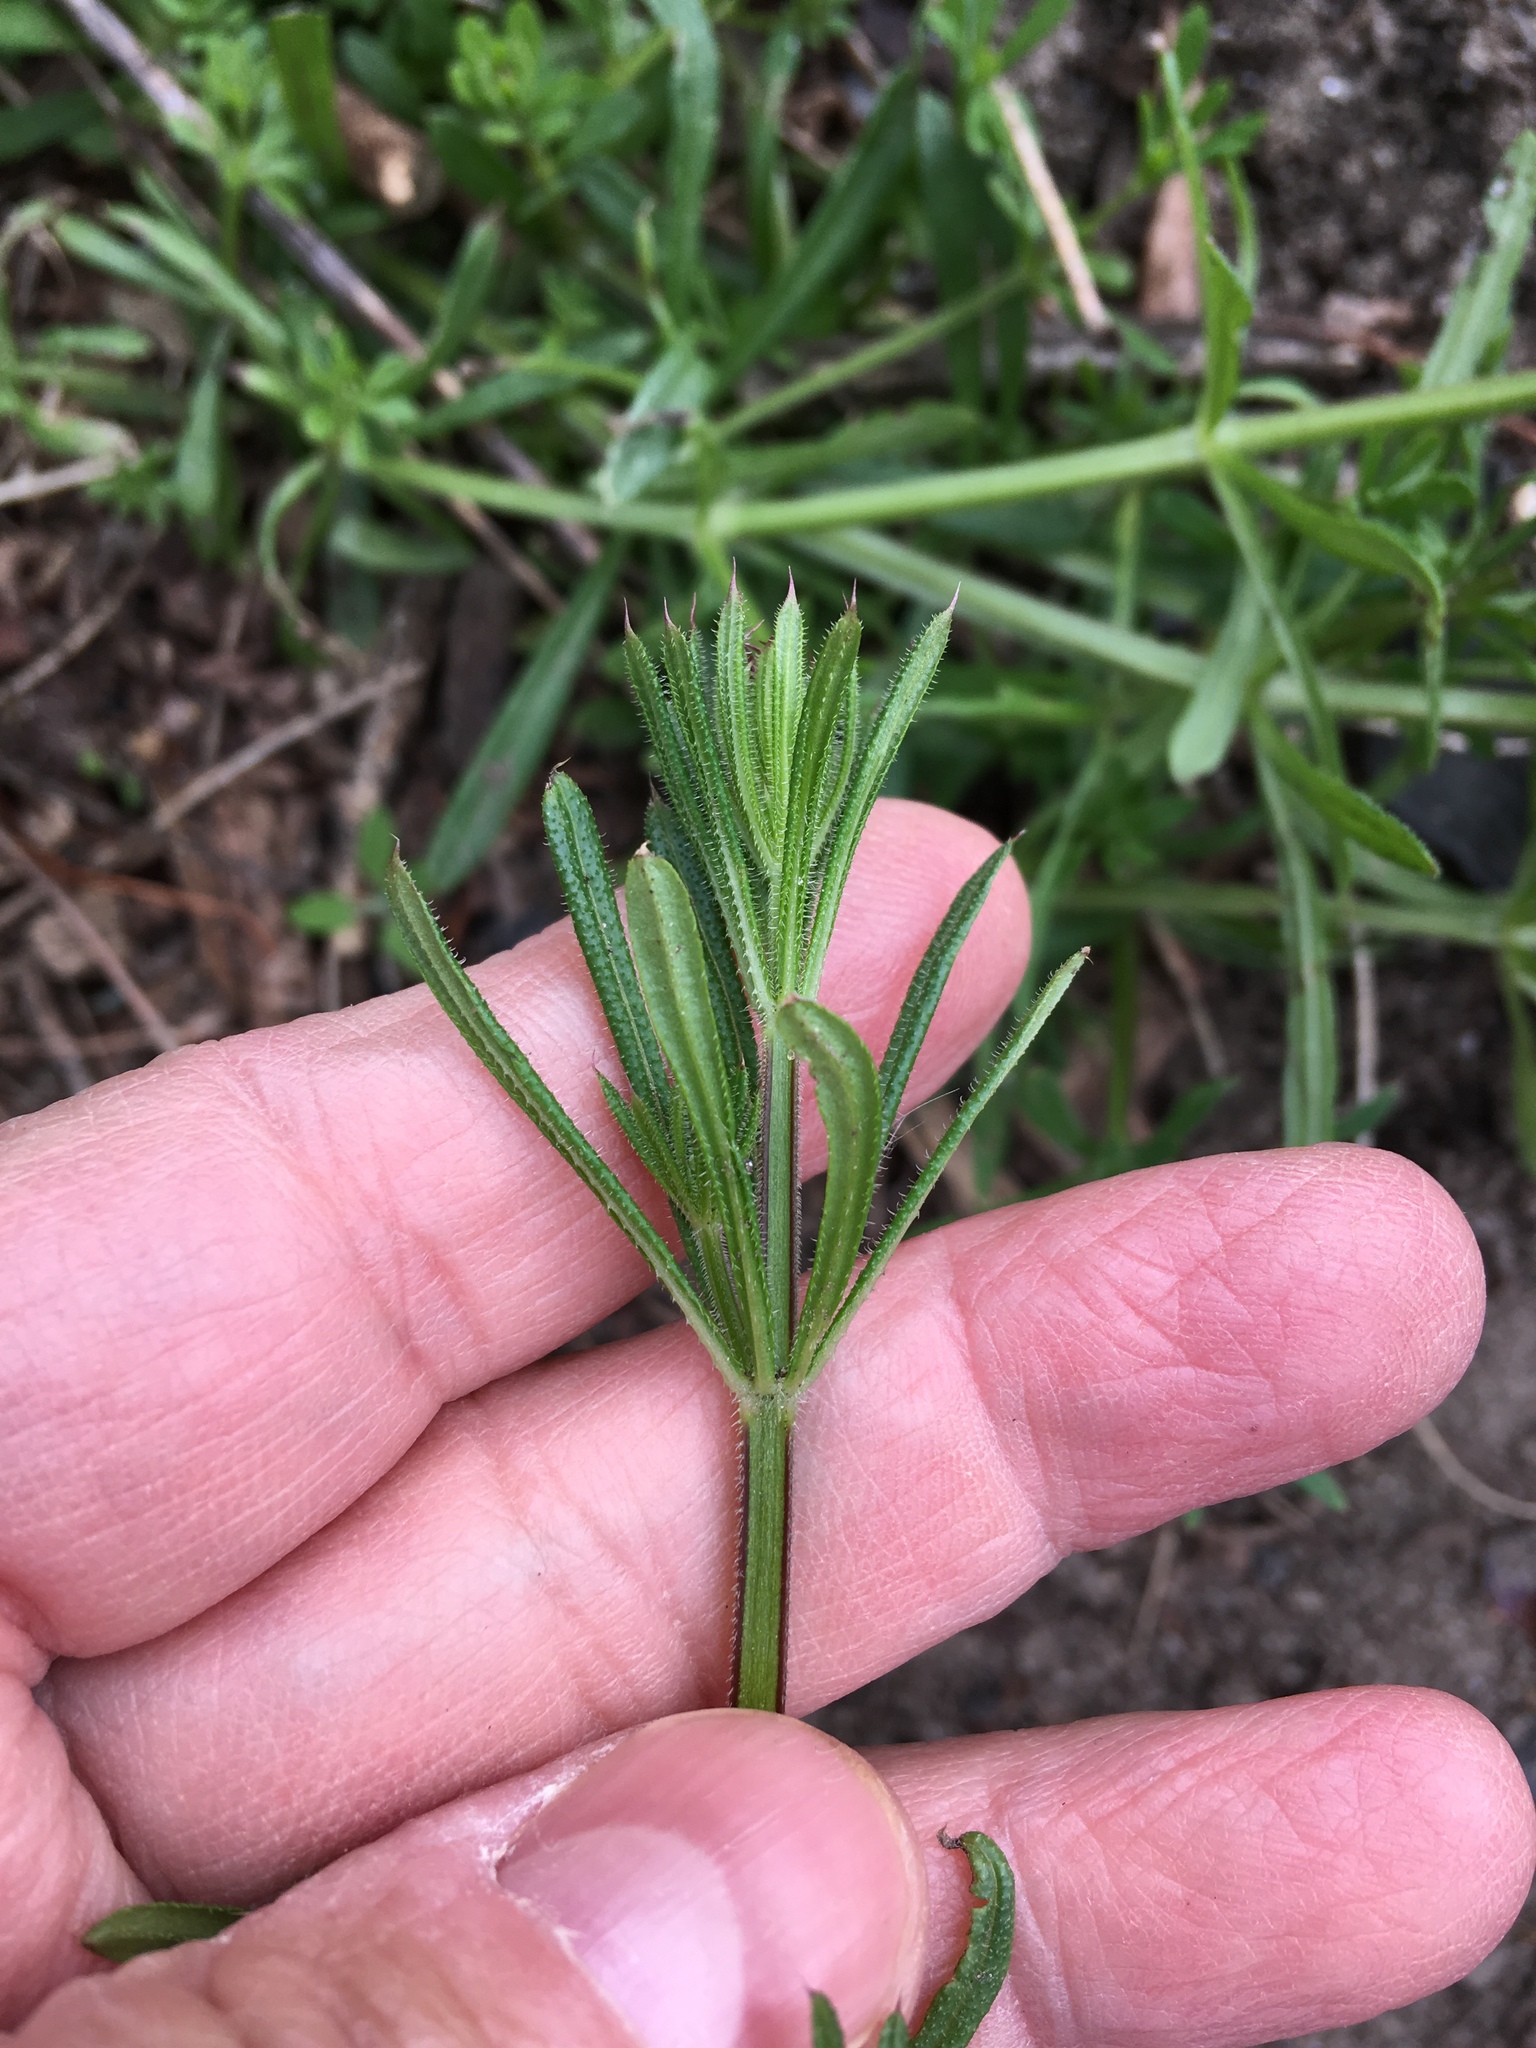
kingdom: Plantae
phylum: Tracheophyta
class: Magnoliopsida
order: Gentianales
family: Rubiaceae
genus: Galium
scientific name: Galium aparine
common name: Cleavers
